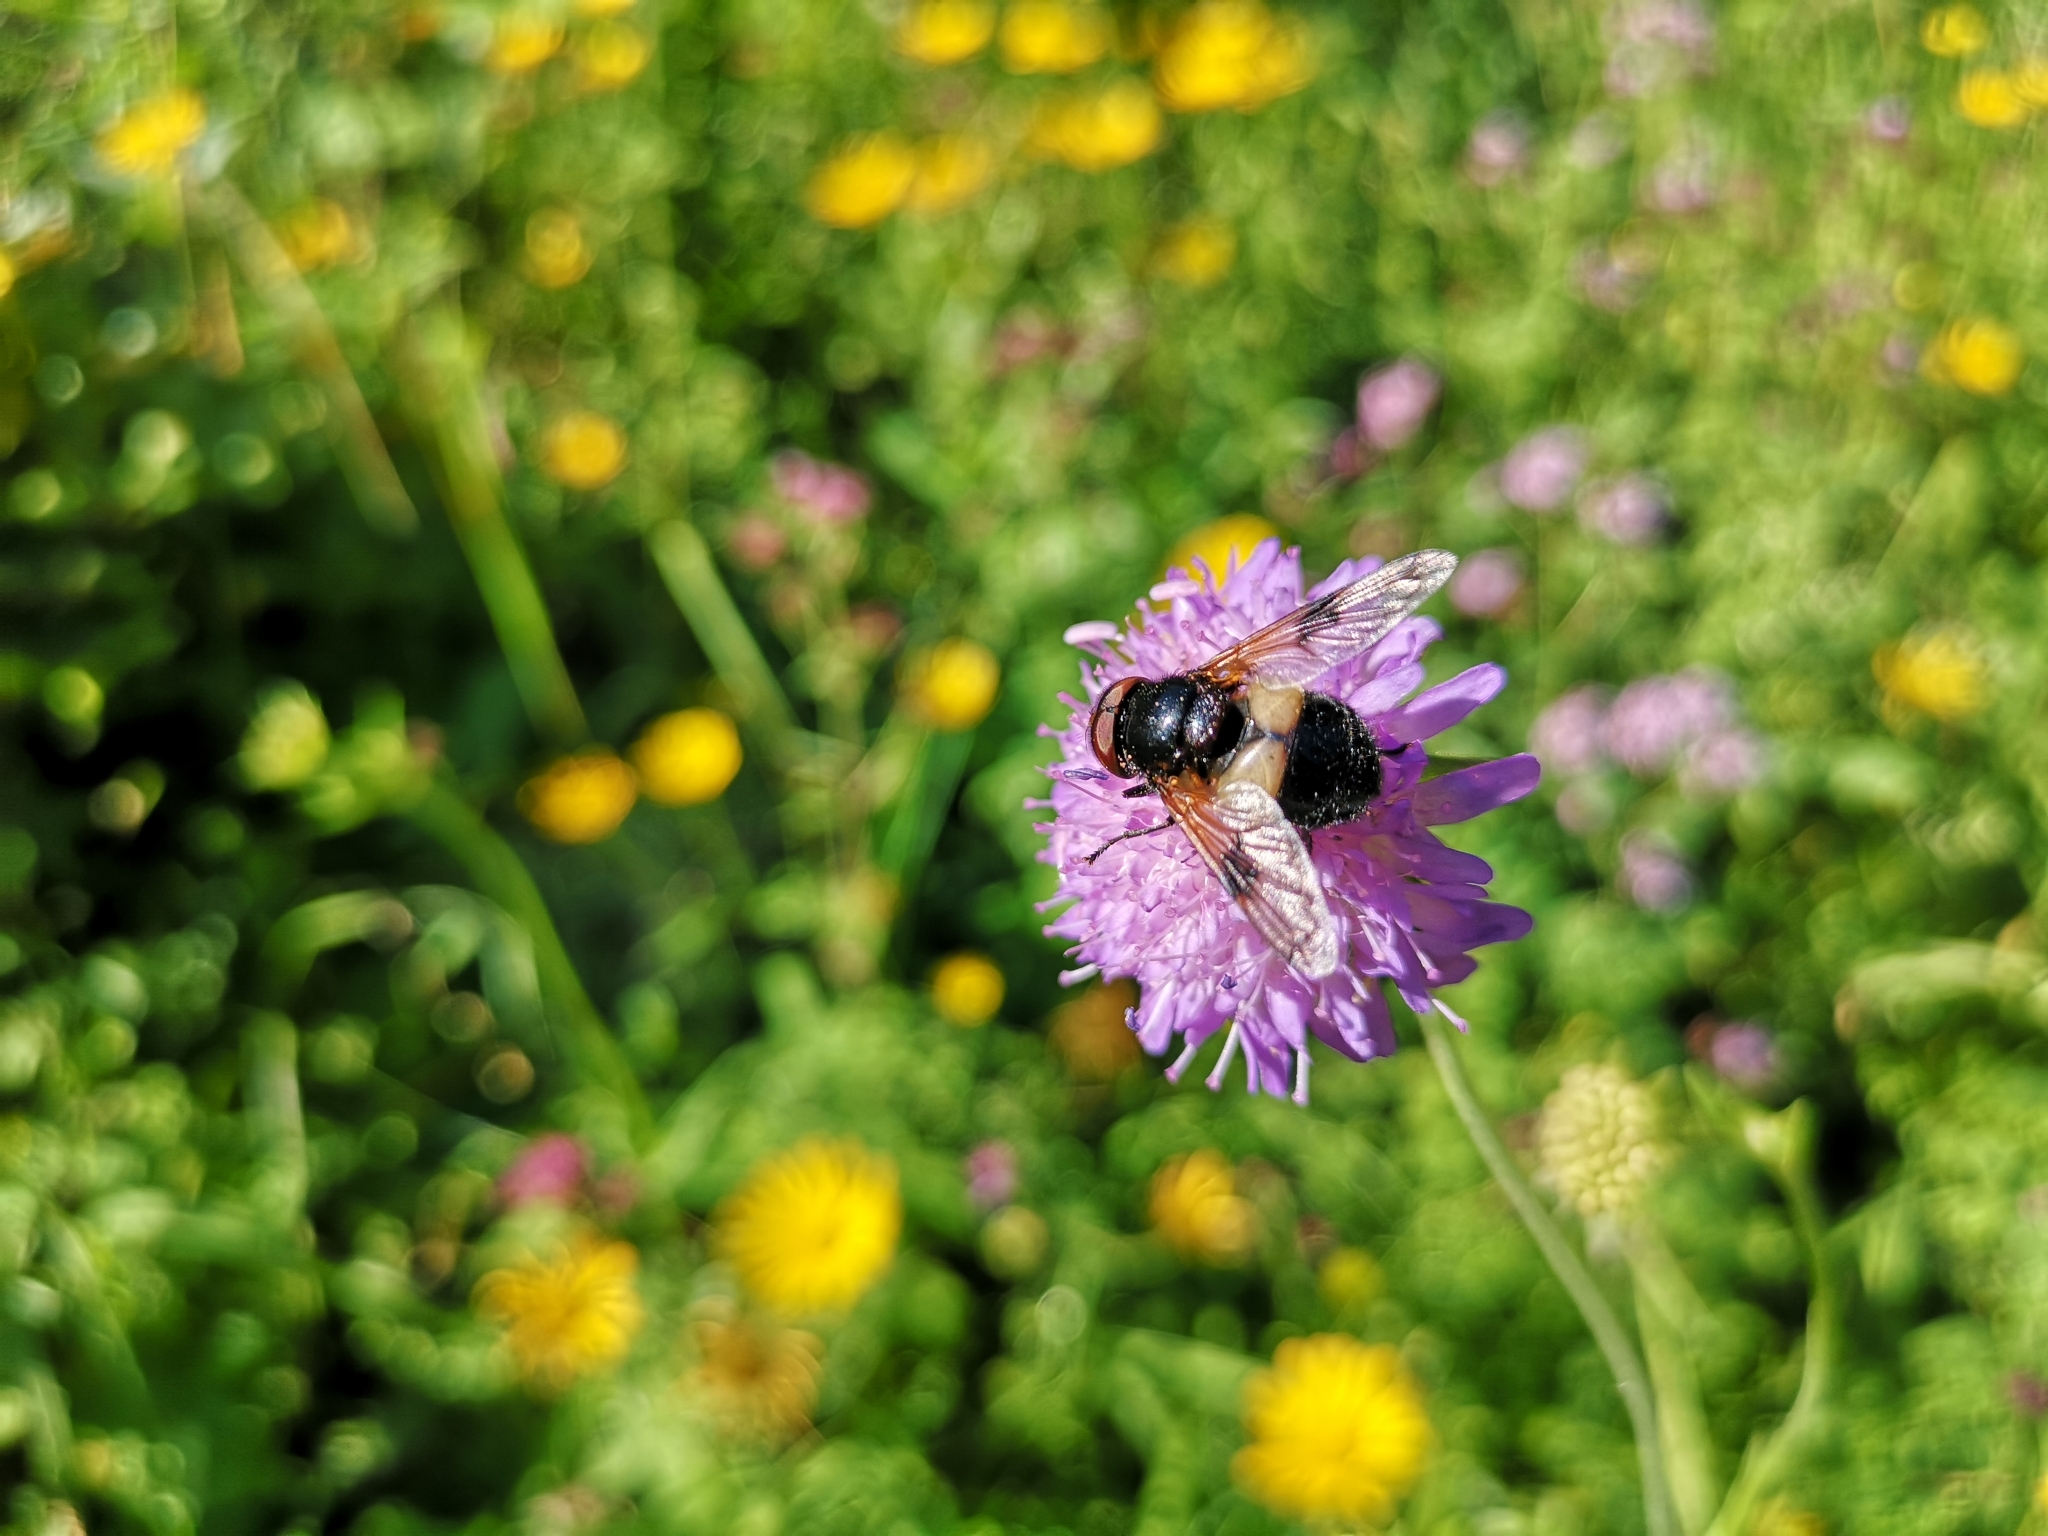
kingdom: Animalia
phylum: Arthropoda
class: Insecta
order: Diptera
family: Syrphidae
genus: Volucella
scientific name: Volucella pellucens
